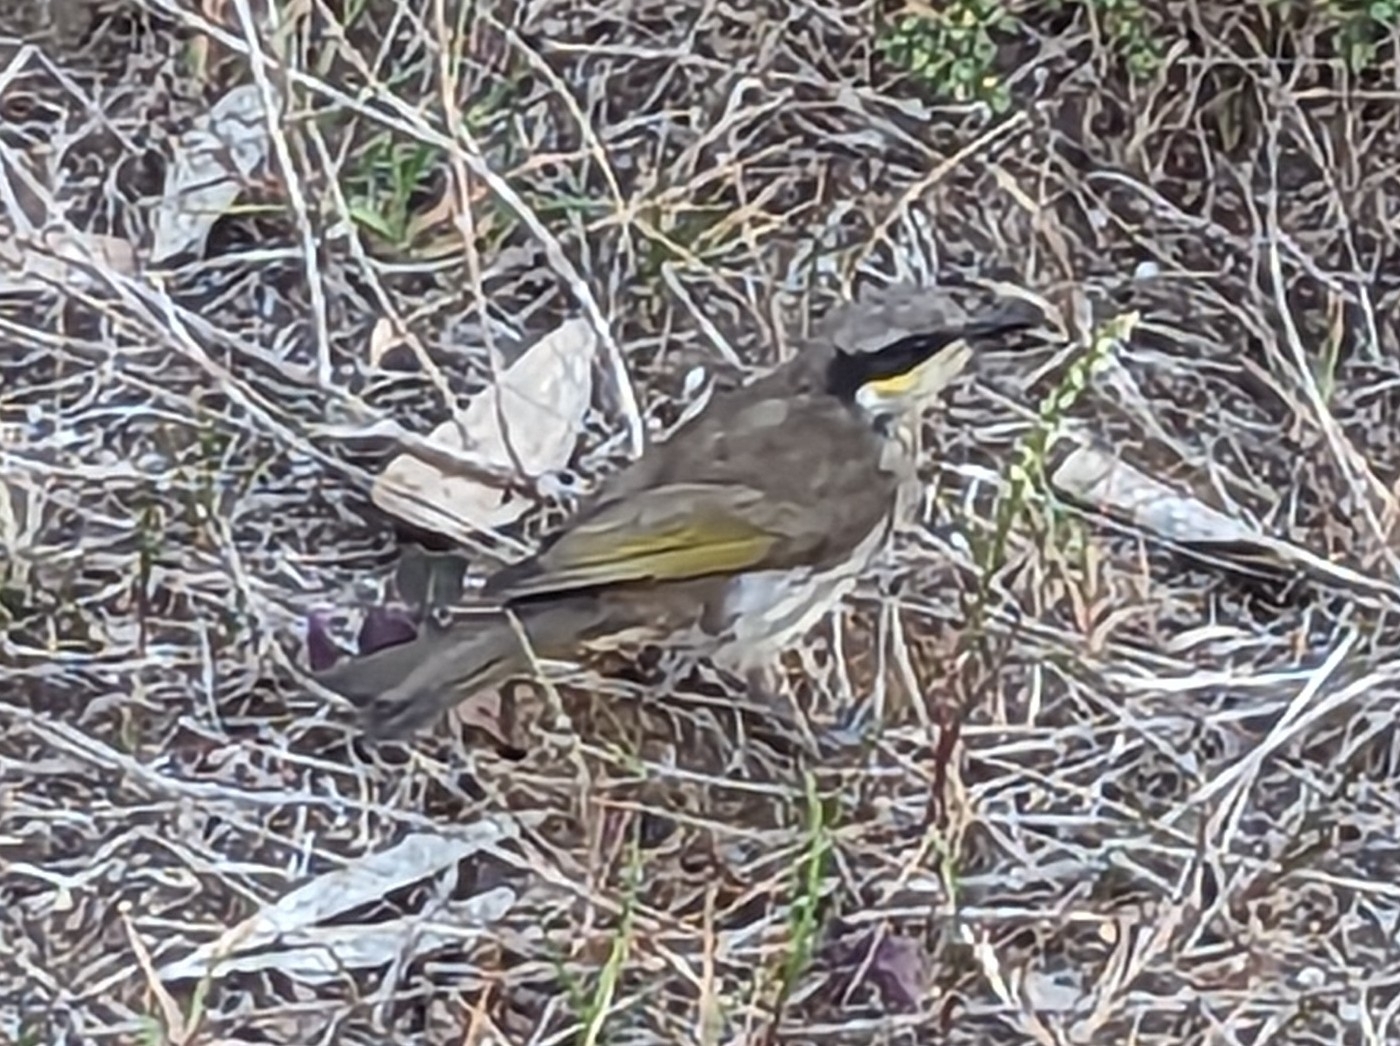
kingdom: Animalia
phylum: Chordata
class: Aves
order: Passeriformes
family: Meliphagidae
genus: Gavicalis
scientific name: Gavicalis virescens
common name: Singing honeyeater
